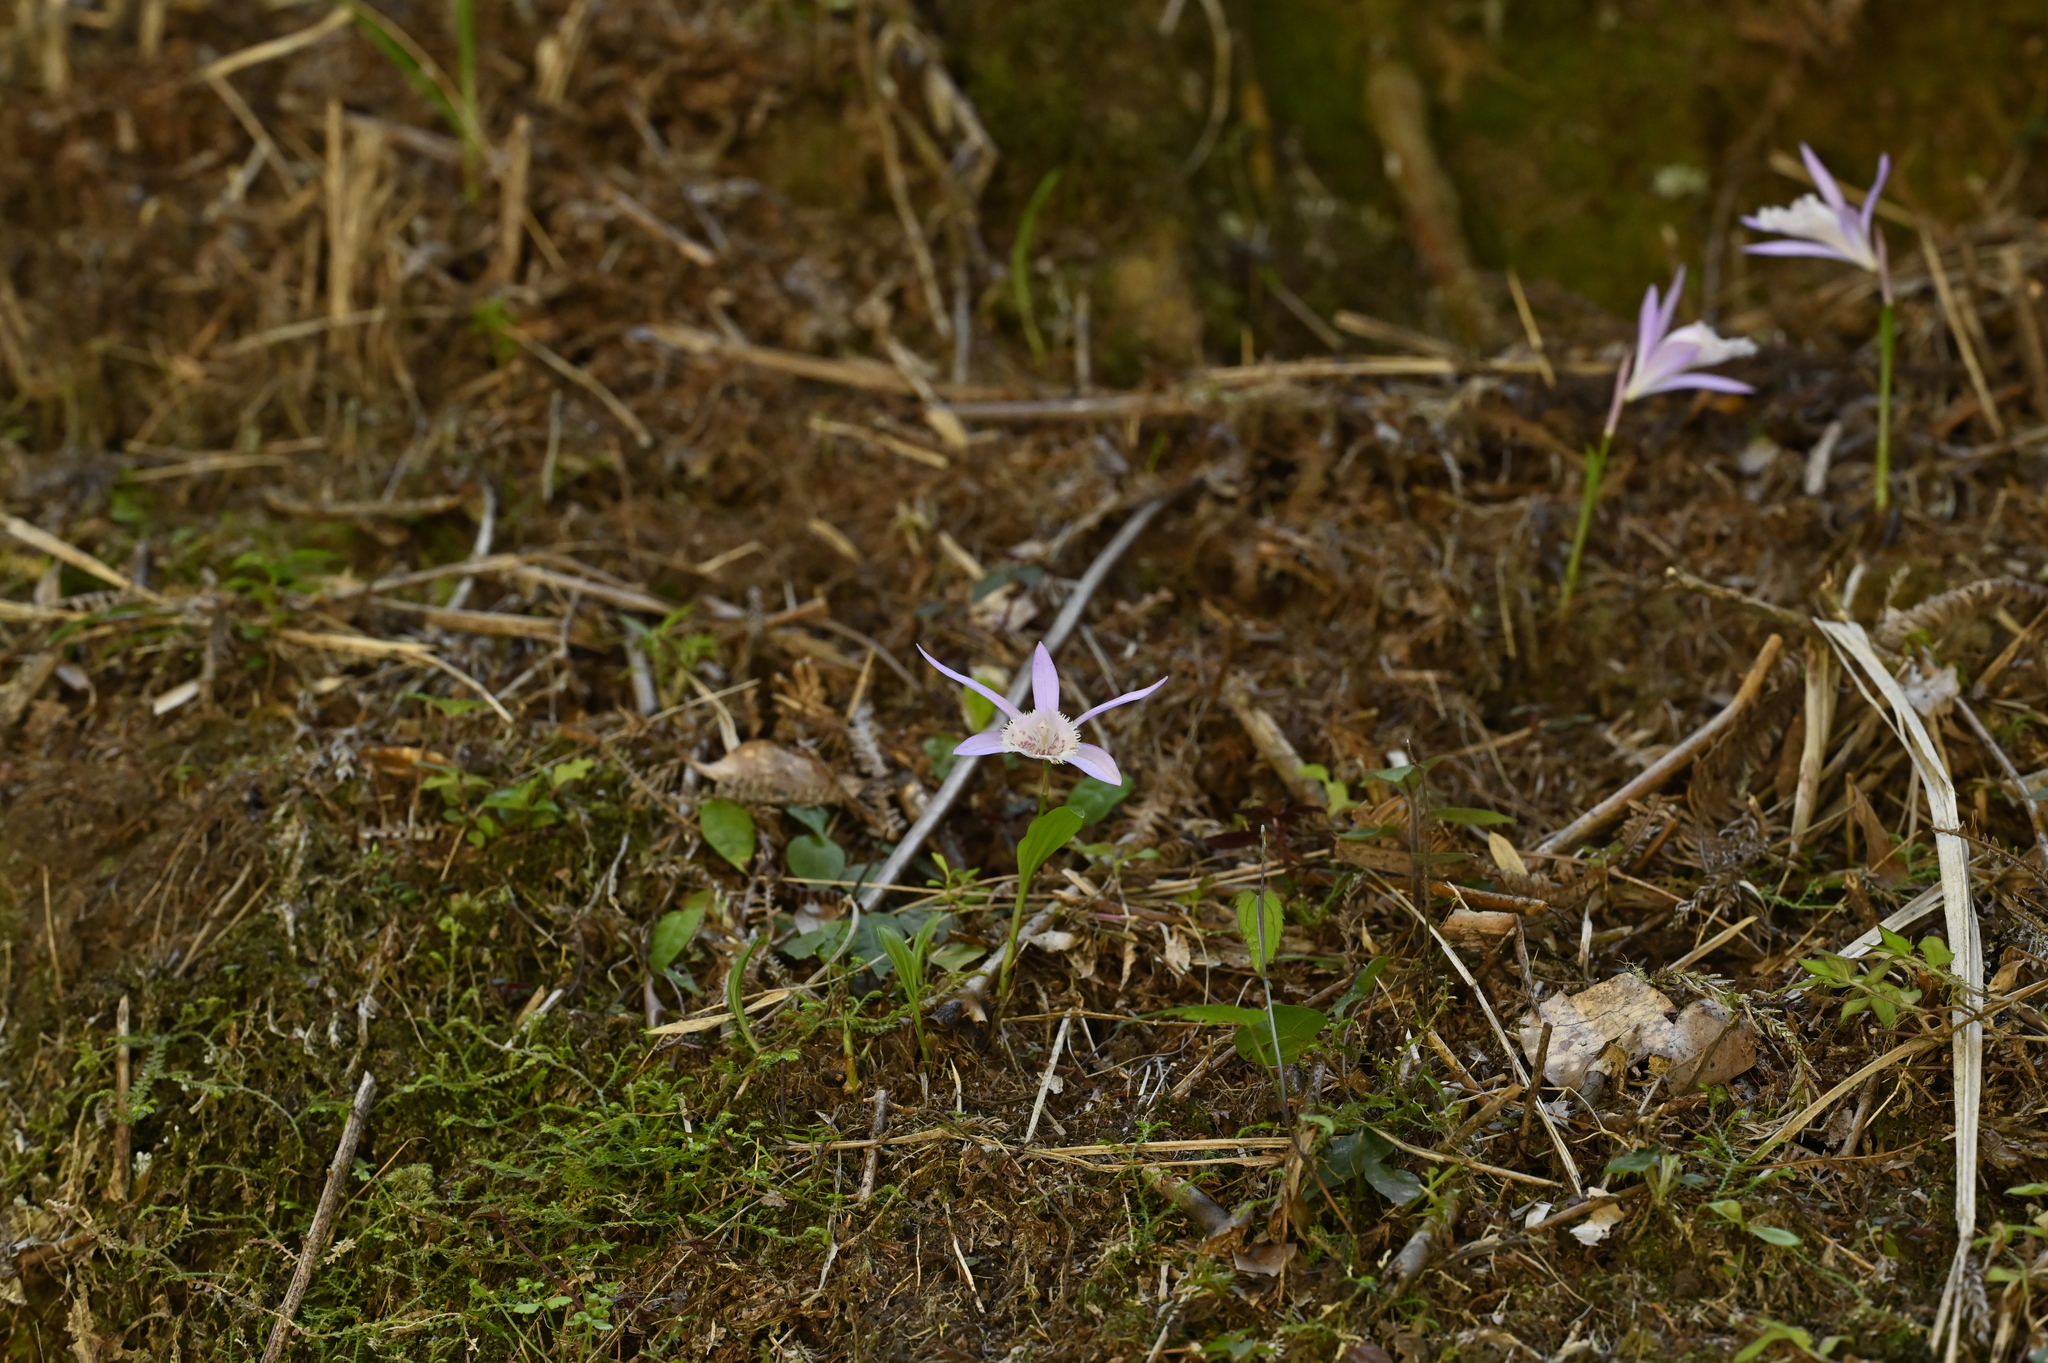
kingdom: Plantae
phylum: Tracheophyta
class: Liliopsida
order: Asparagales
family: Orchidaceae
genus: Pleione
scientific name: Pleione formosana
